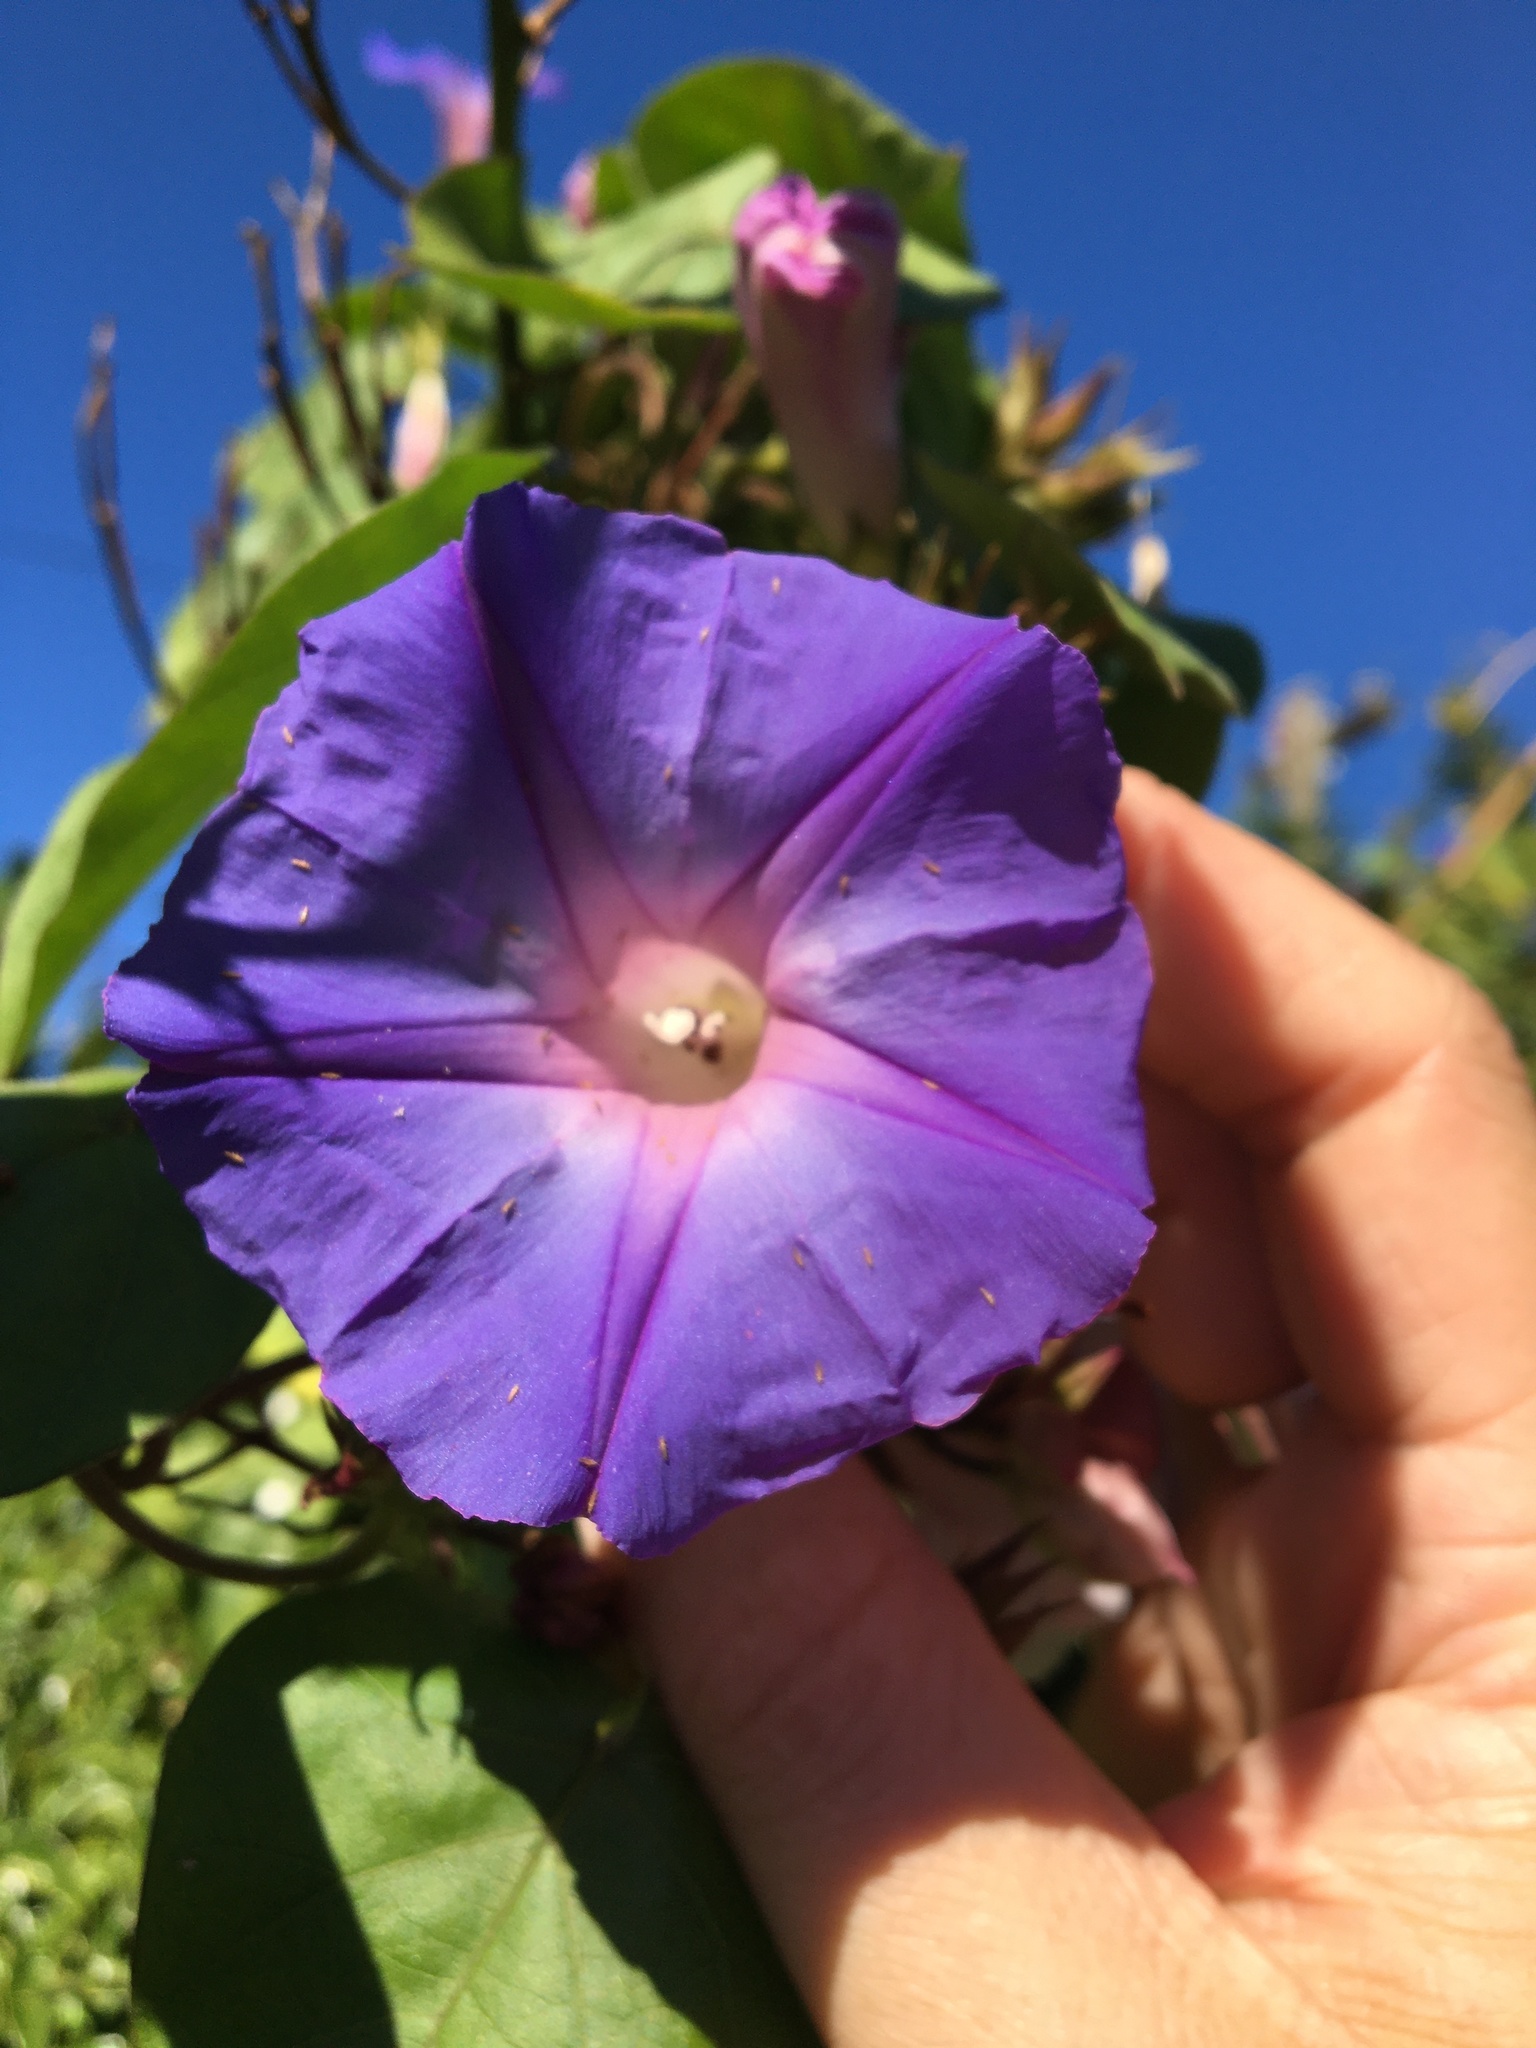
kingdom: Plantae
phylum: Tracheophyta
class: Magnoliopsida
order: Solanales
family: Convolvulaceae
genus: Ipomoea
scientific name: Ipomoea indica
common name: Blue dawnflower
